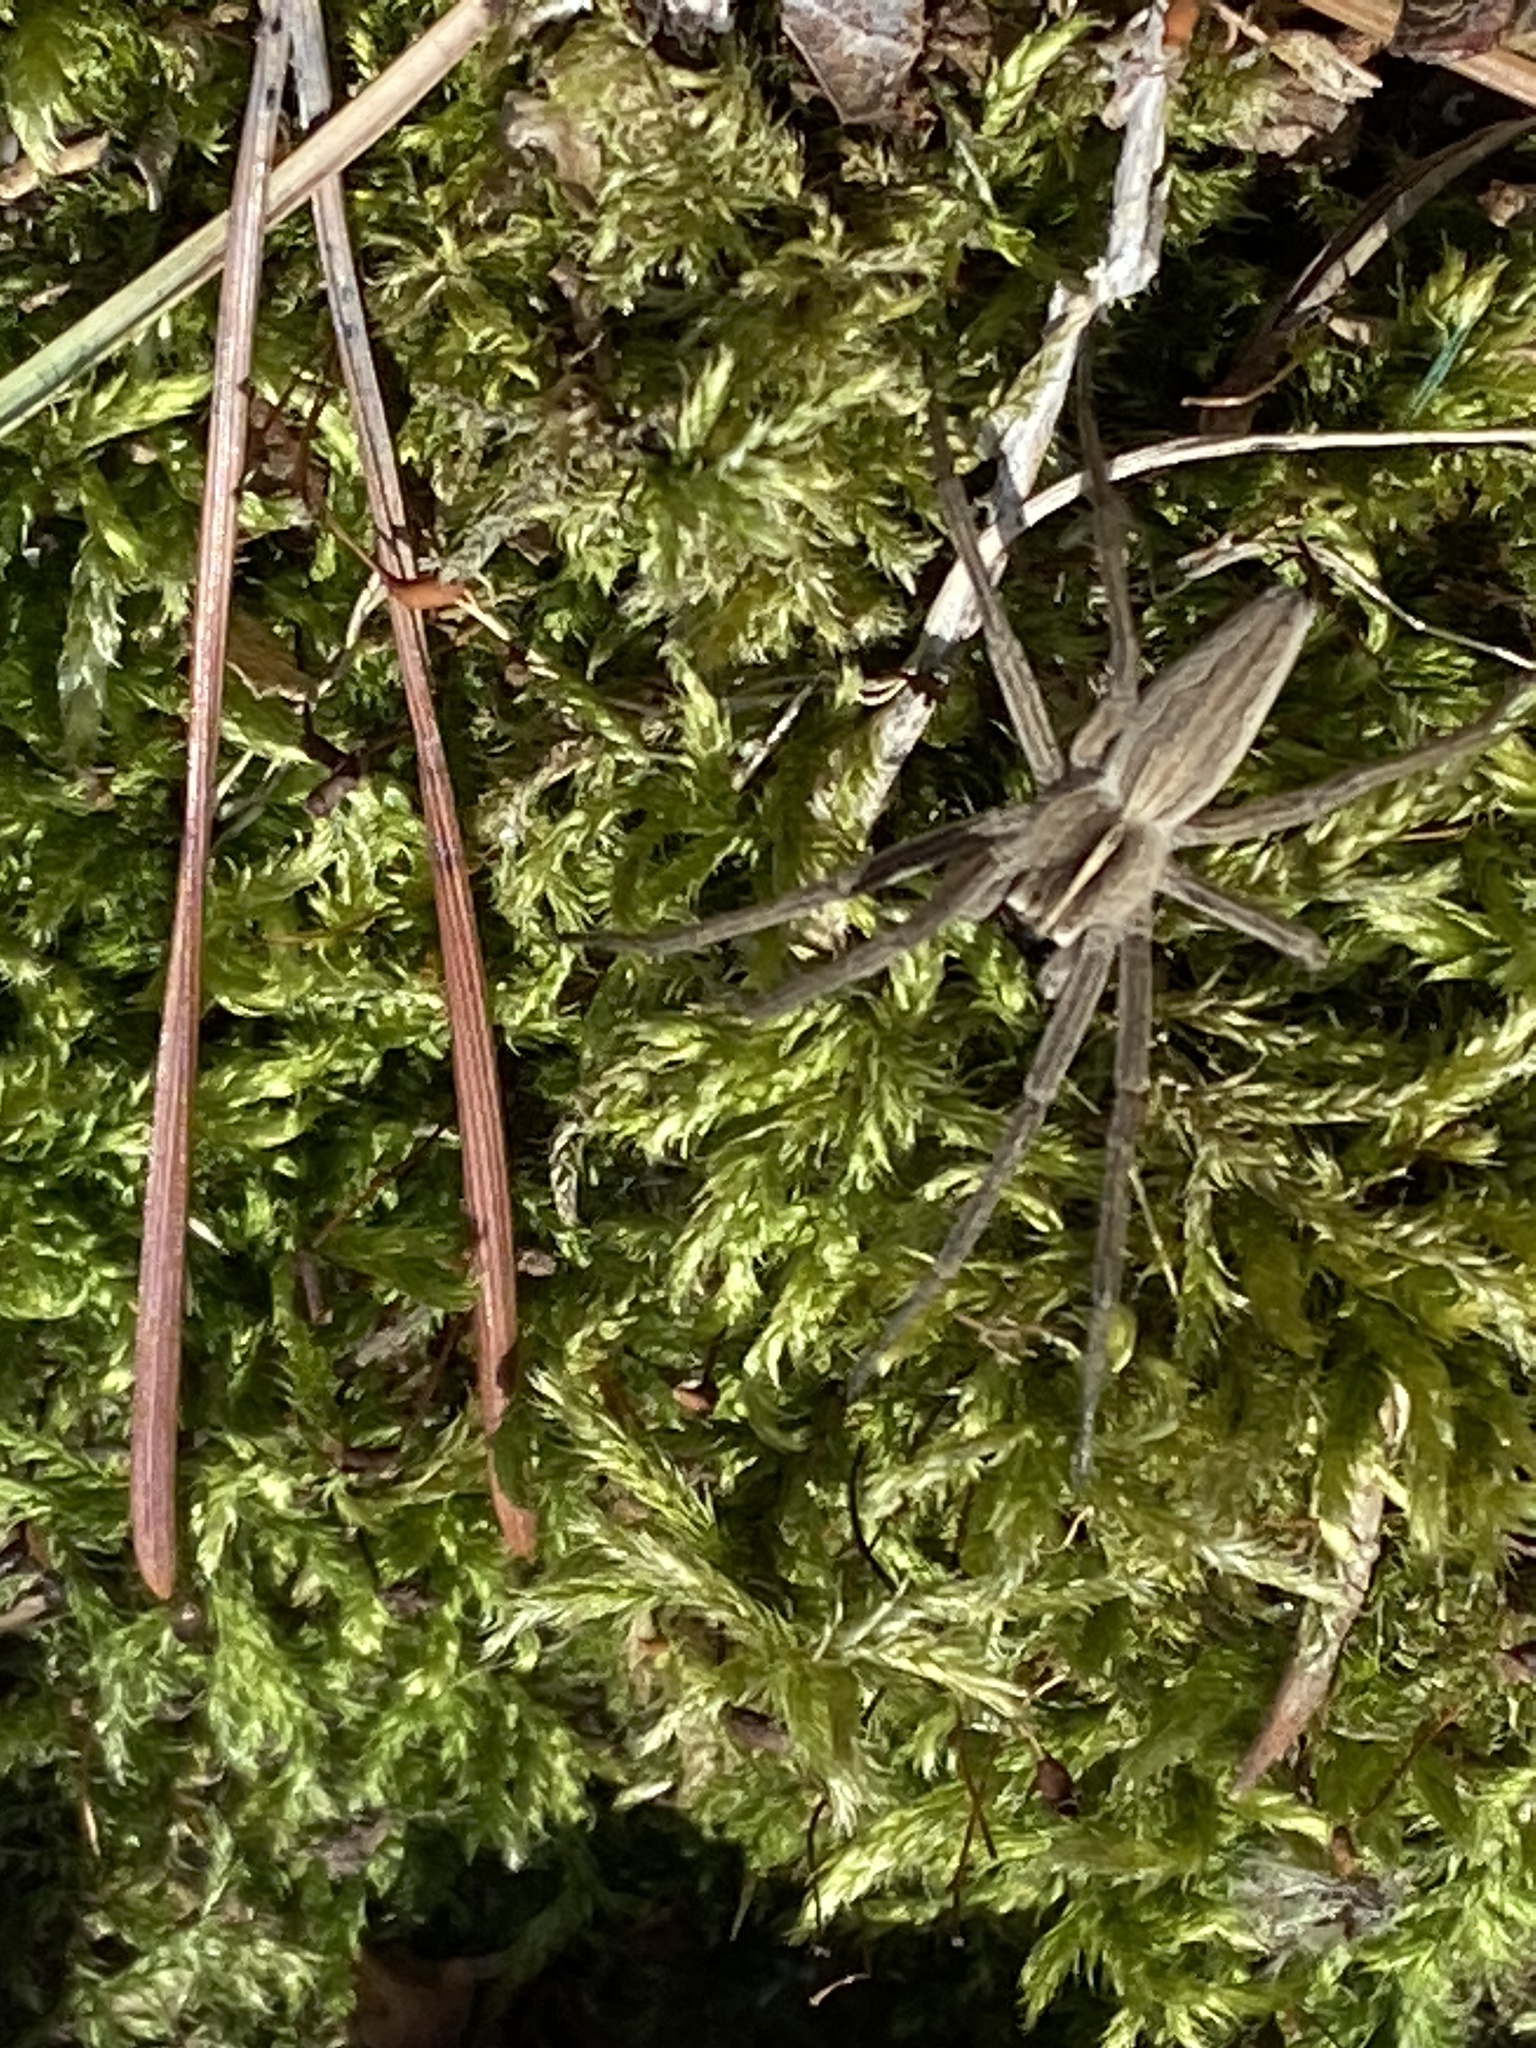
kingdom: Animalia
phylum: Arthropoda
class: Arachnida
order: Araneae
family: Pisauridae
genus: Pisaura
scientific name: Pisaura mirabilis
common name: Tent spider
